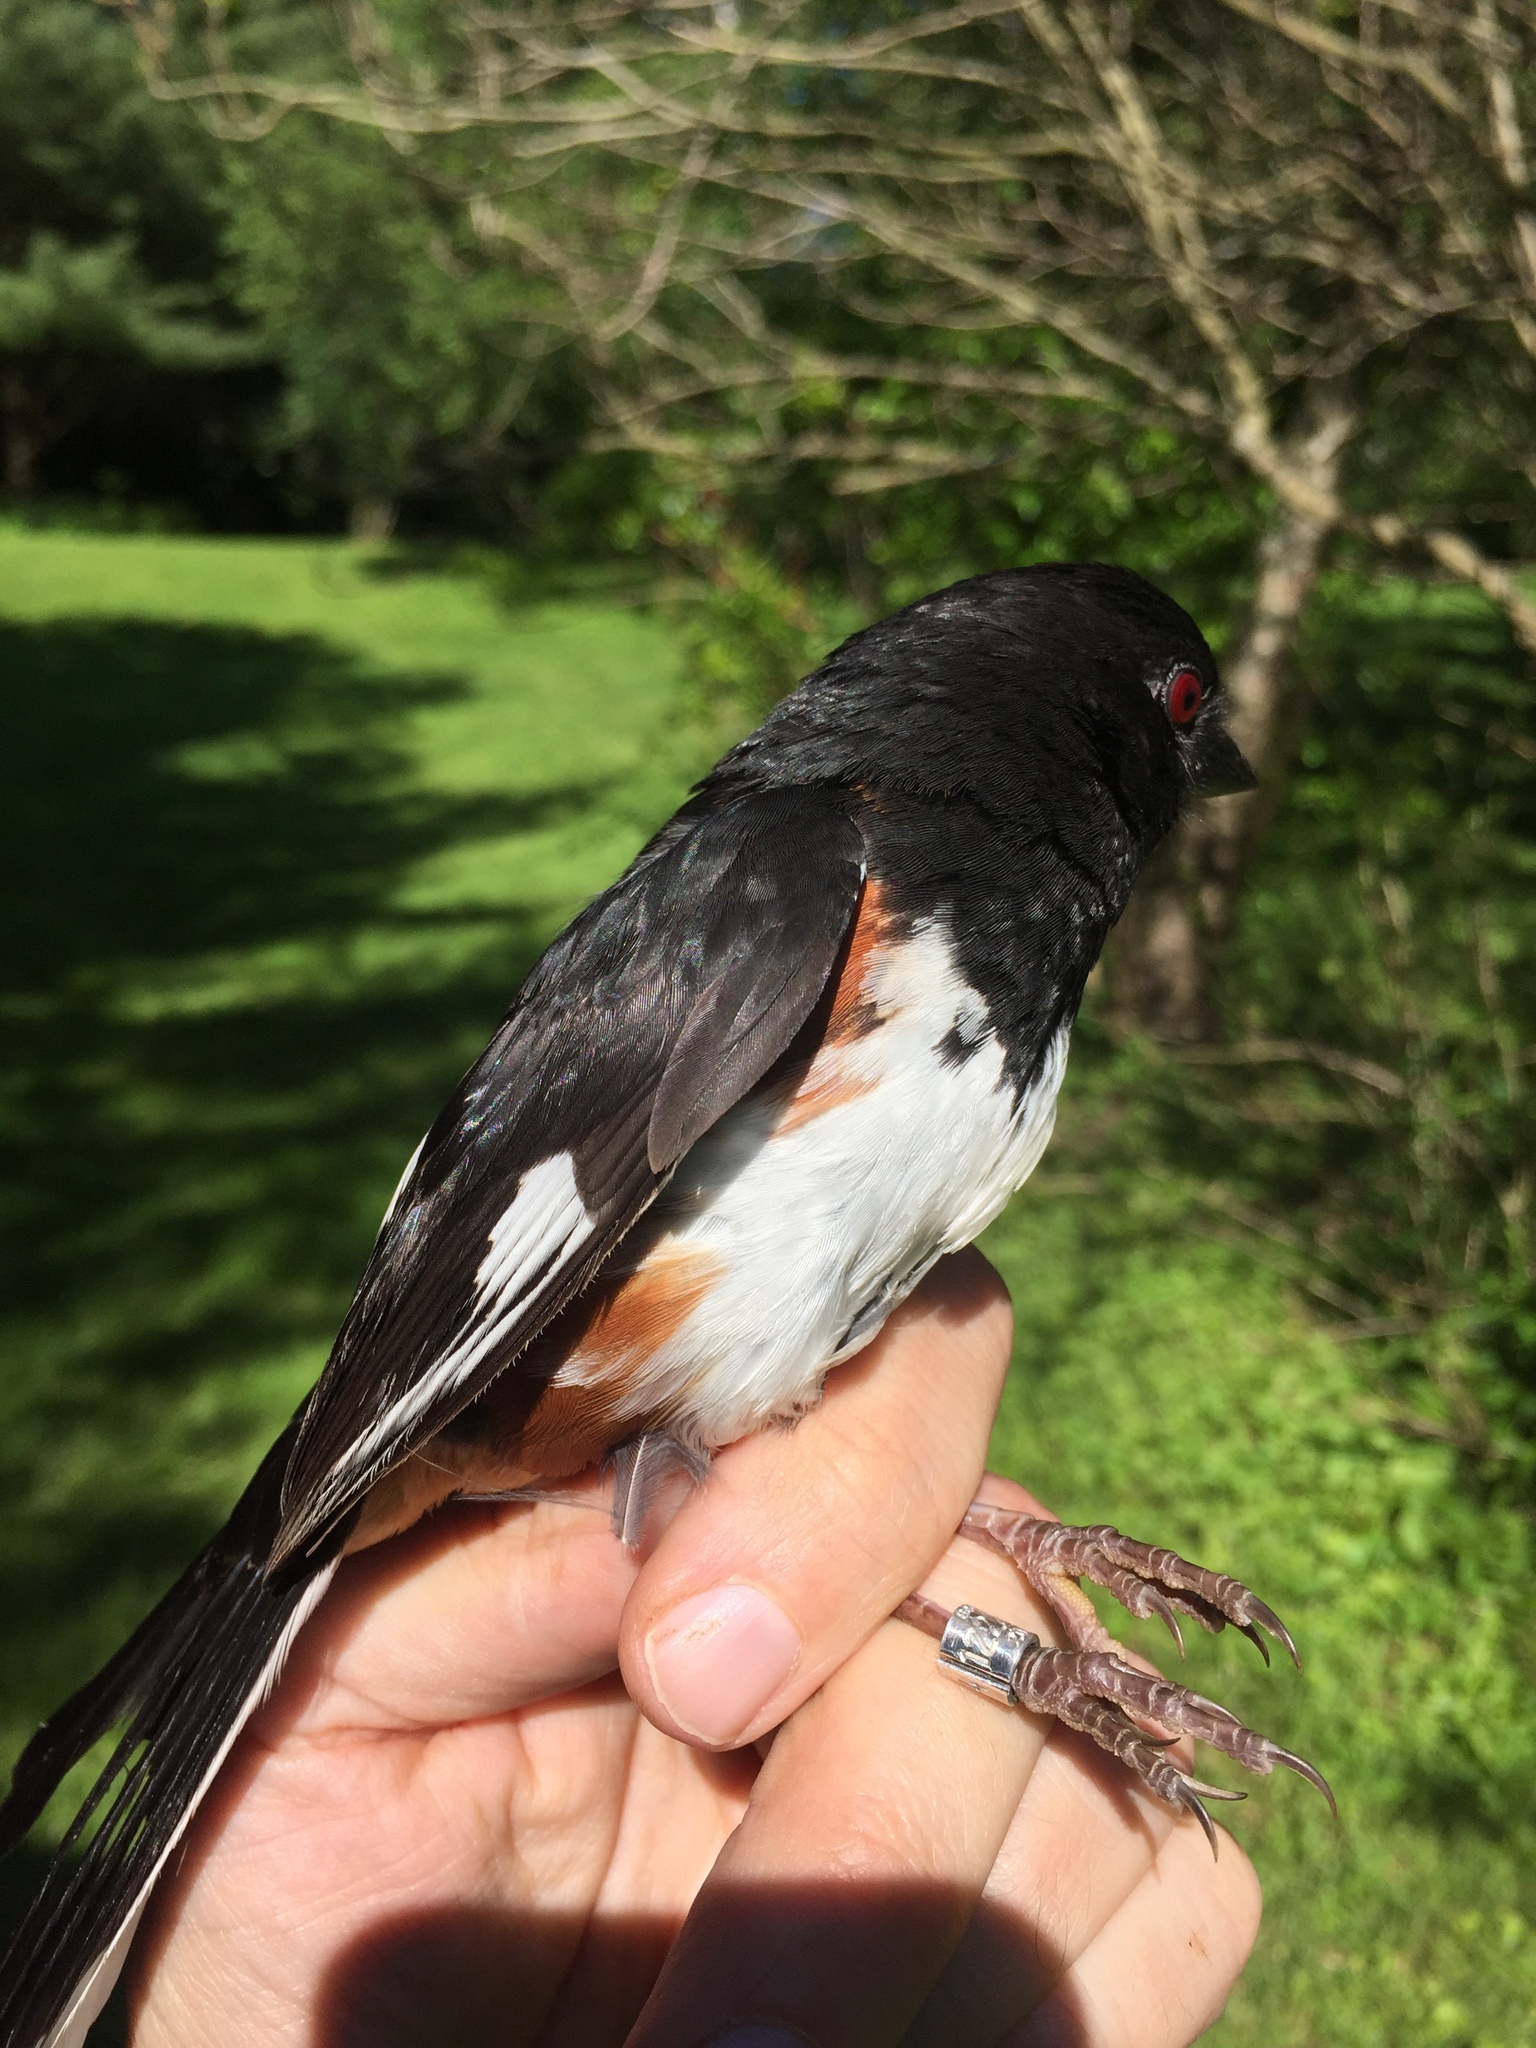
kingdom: Animalia
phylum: Chordata
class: Aves
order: Passeriformes
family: Passerellidae
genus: Pipilo
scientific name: Pipilo erythrophthalmus
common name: Eastern towhee
